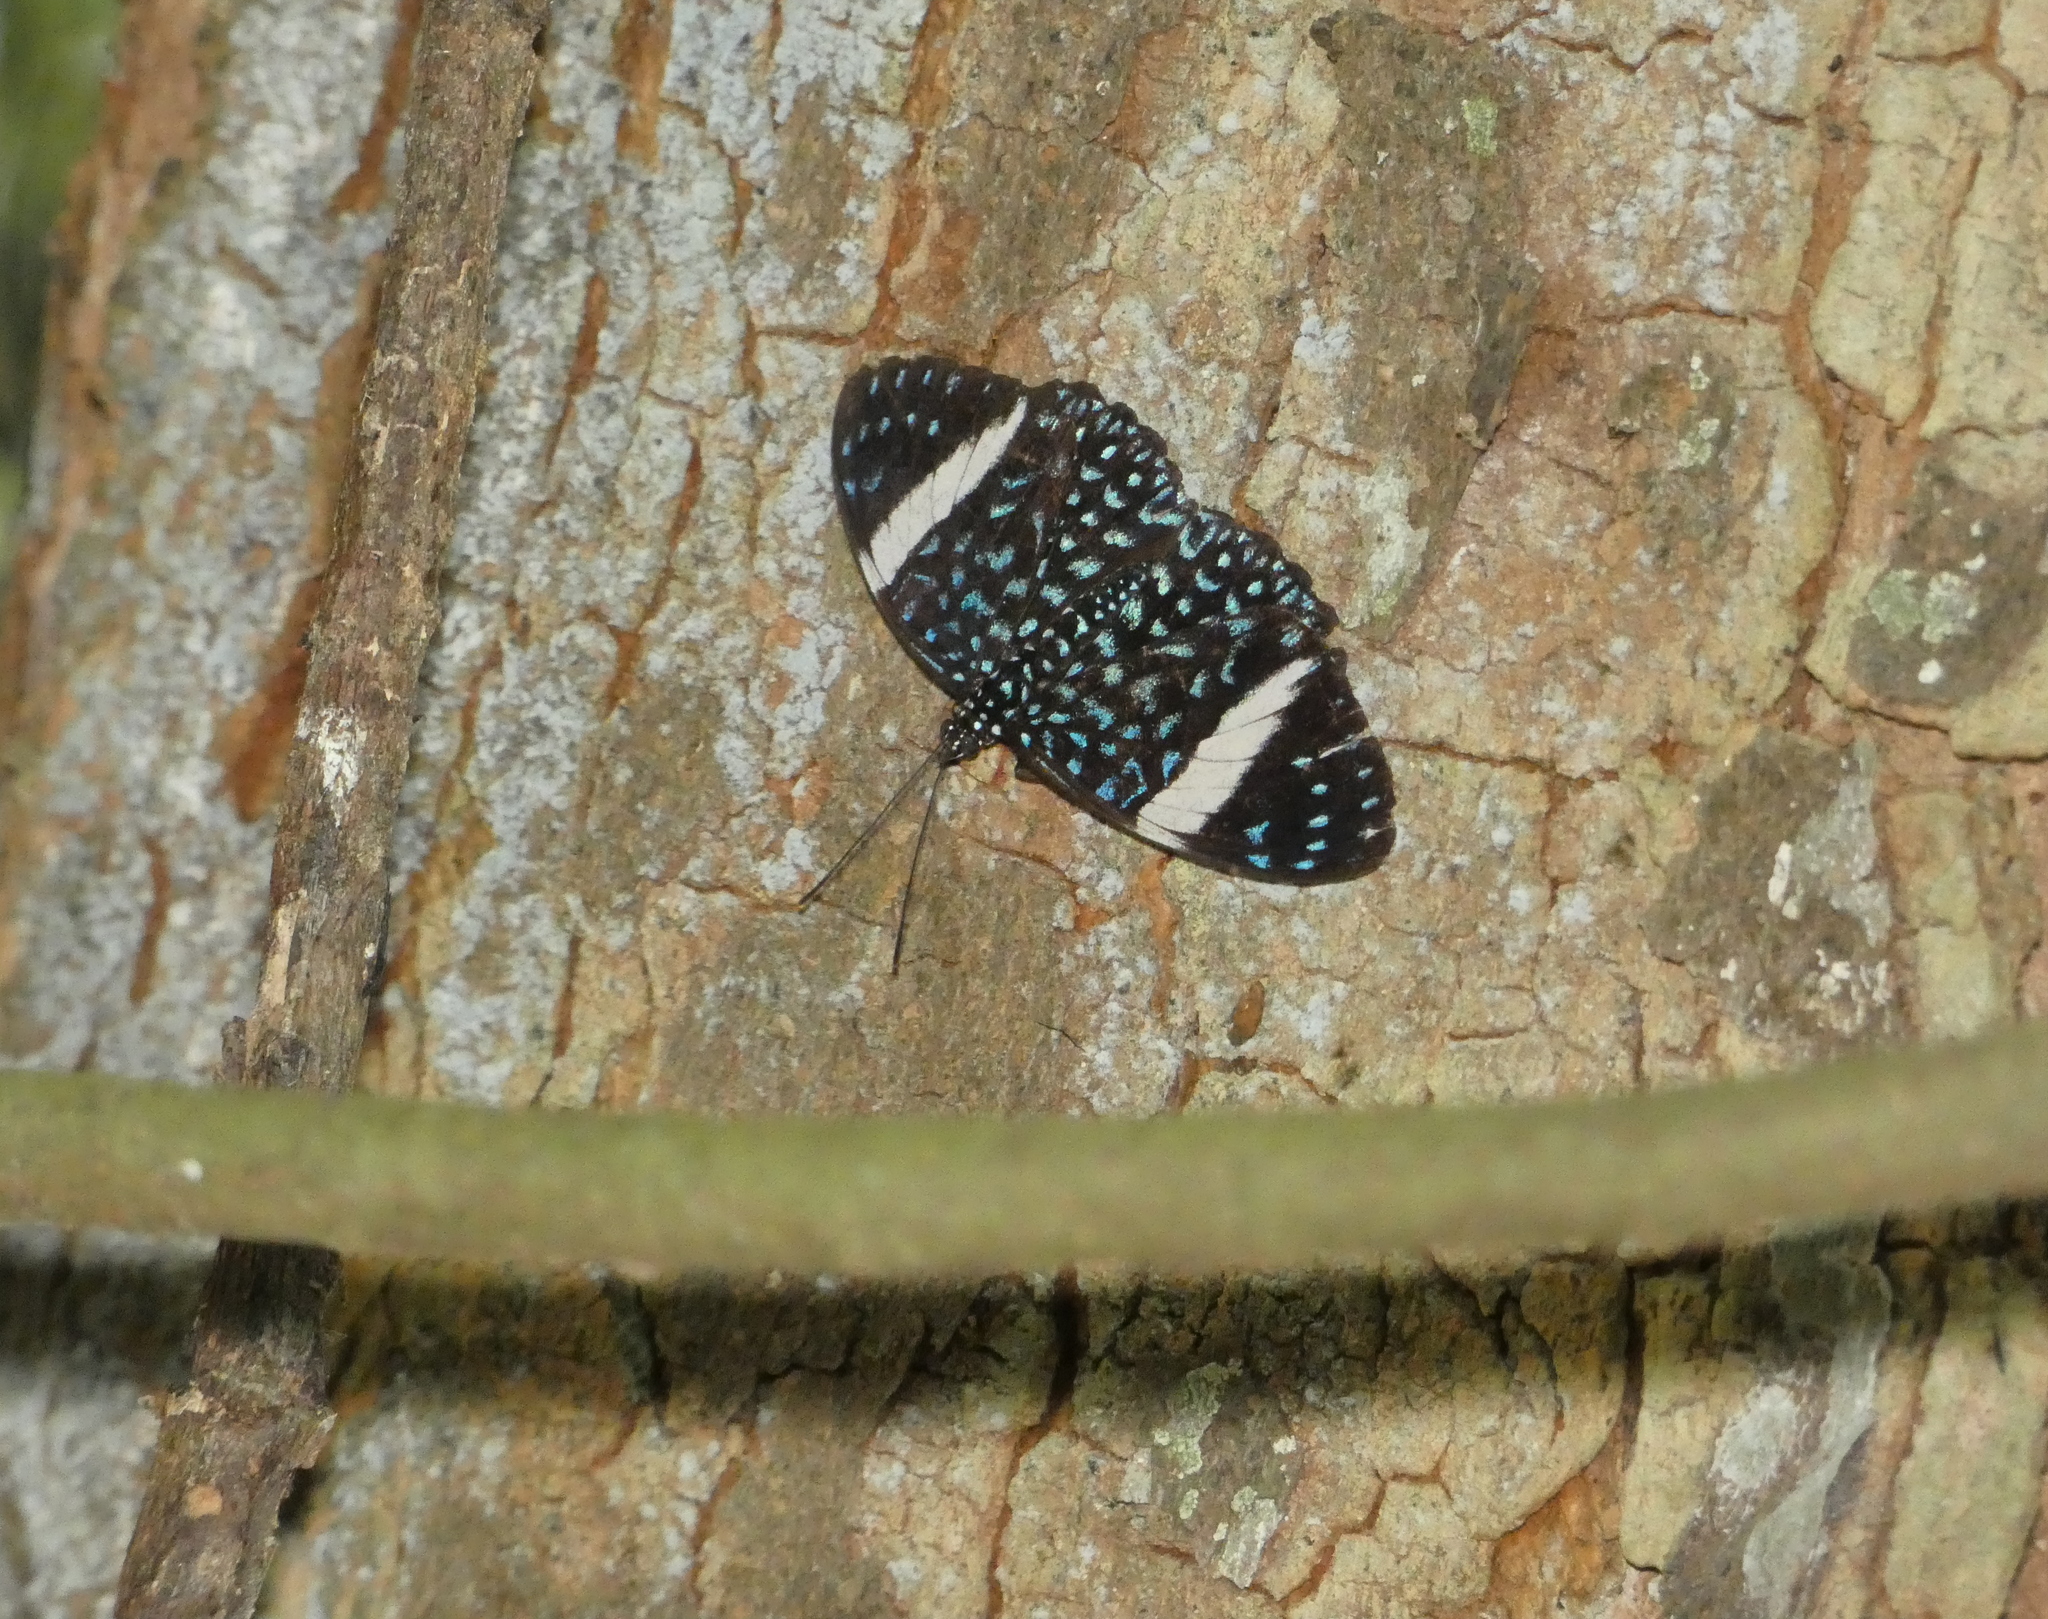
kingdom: Animalia
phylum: Arthropoda
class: Insecta
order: Lepidoptera
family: Nymphalidae
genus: Hamadryas
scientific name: Hamadryas laodamia
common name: Starry night cracker
